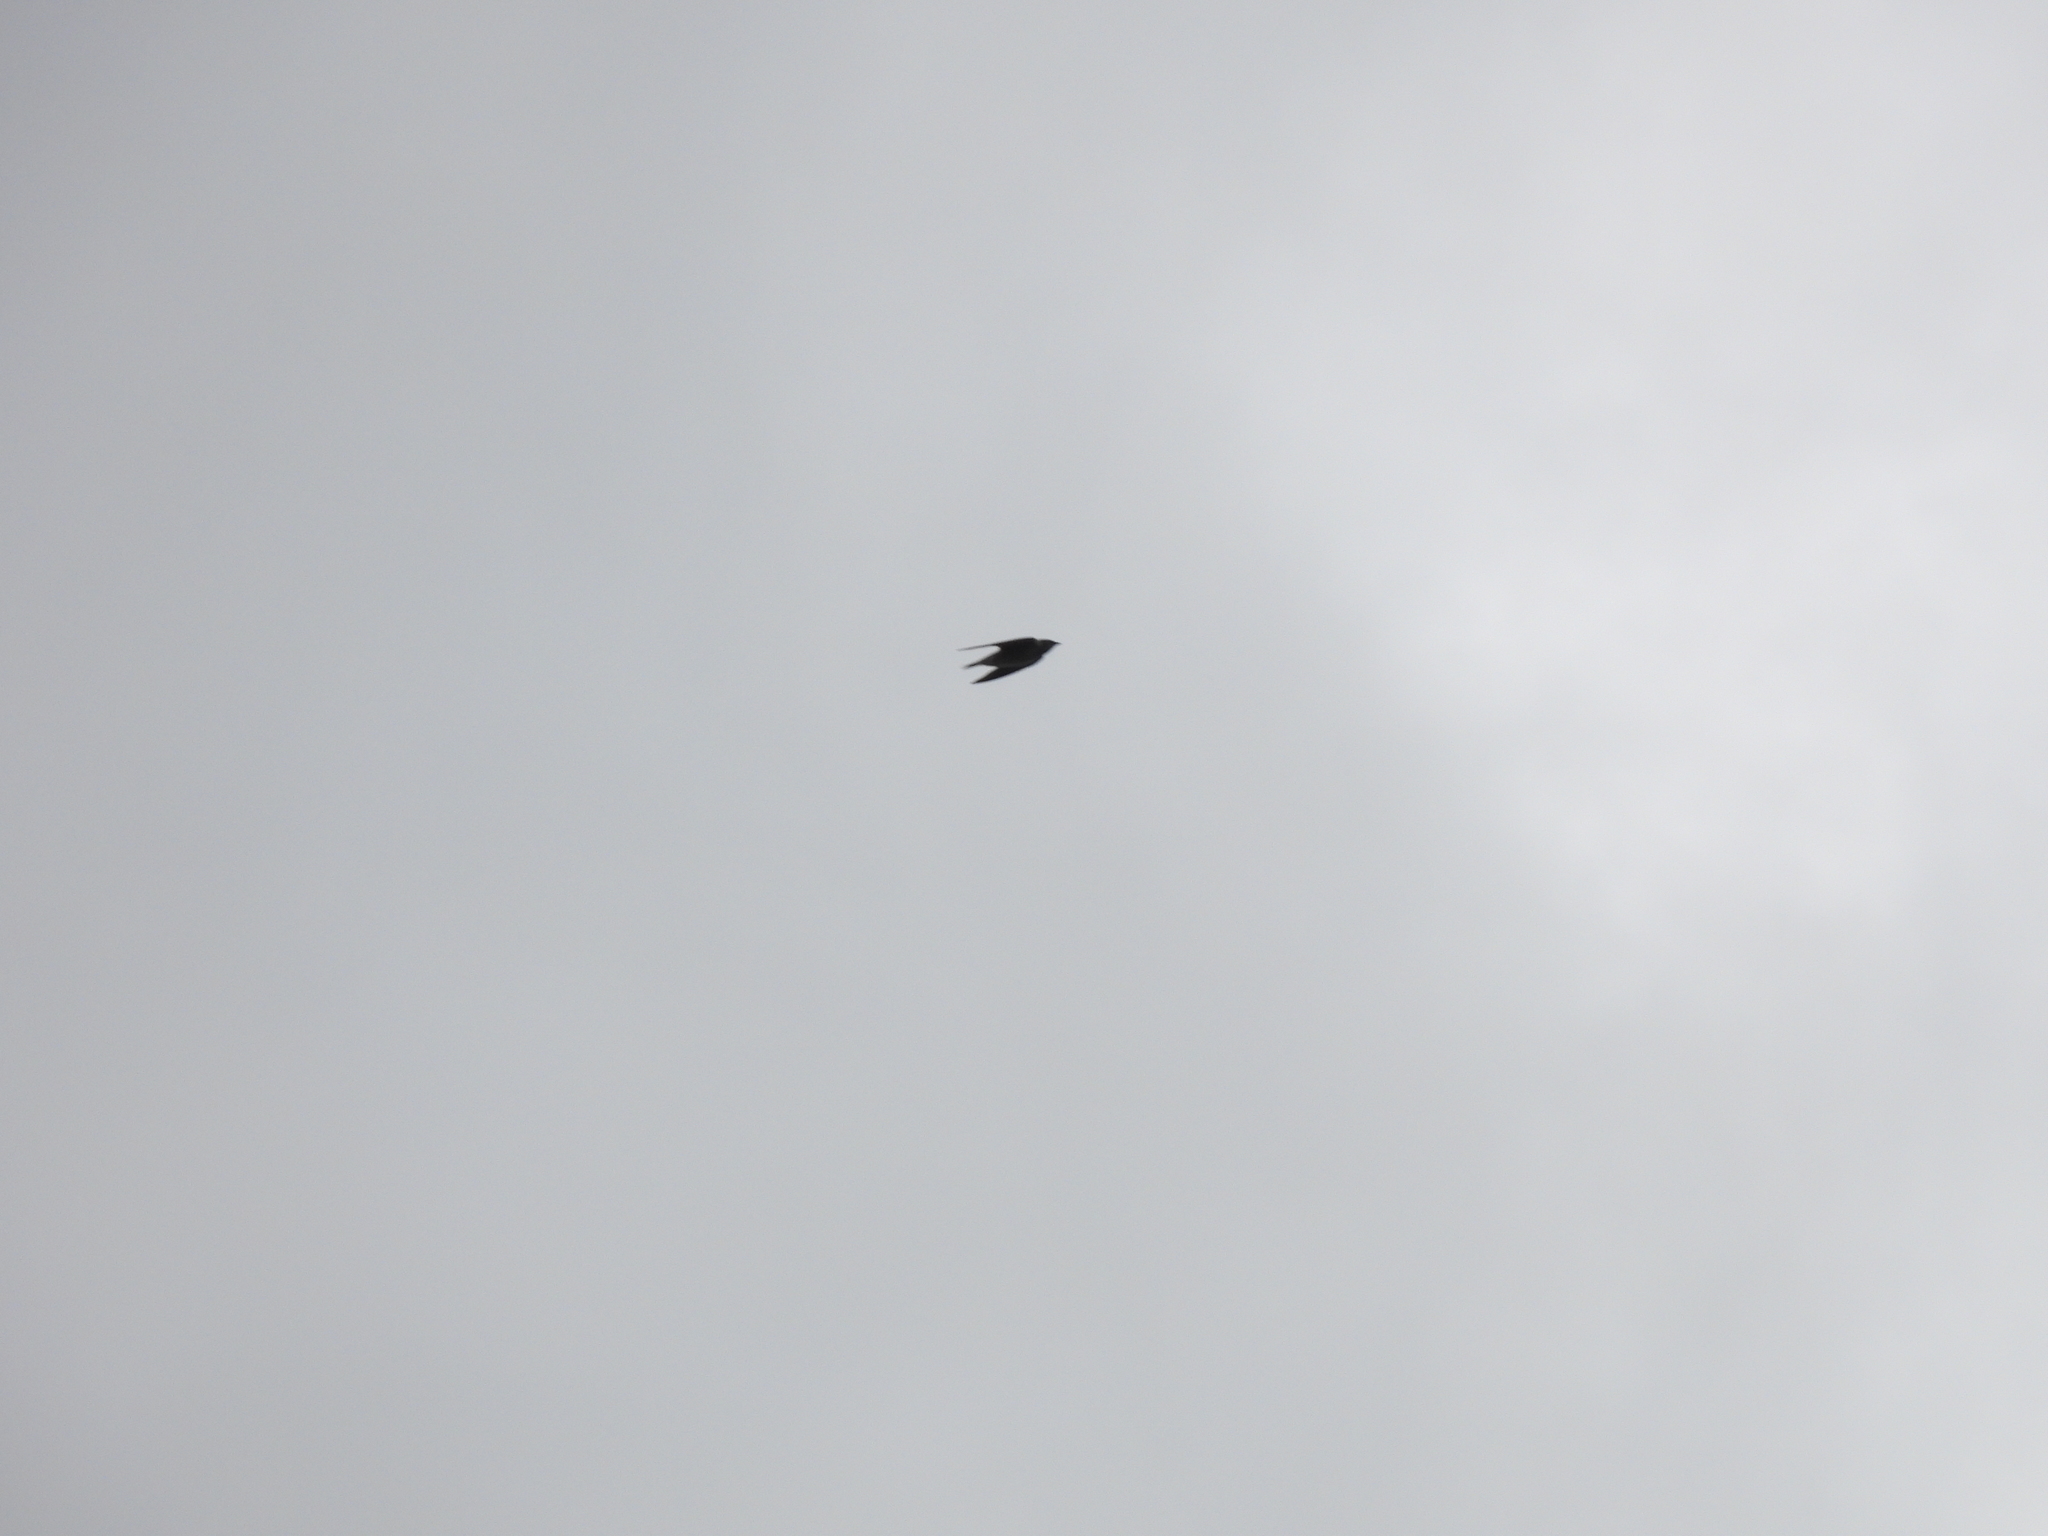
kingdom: Animalia
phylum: Chordata
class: Aves
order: Passeriformes
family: Hirundinidae
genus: Progne
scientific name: Progne subis
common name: Purple martin
